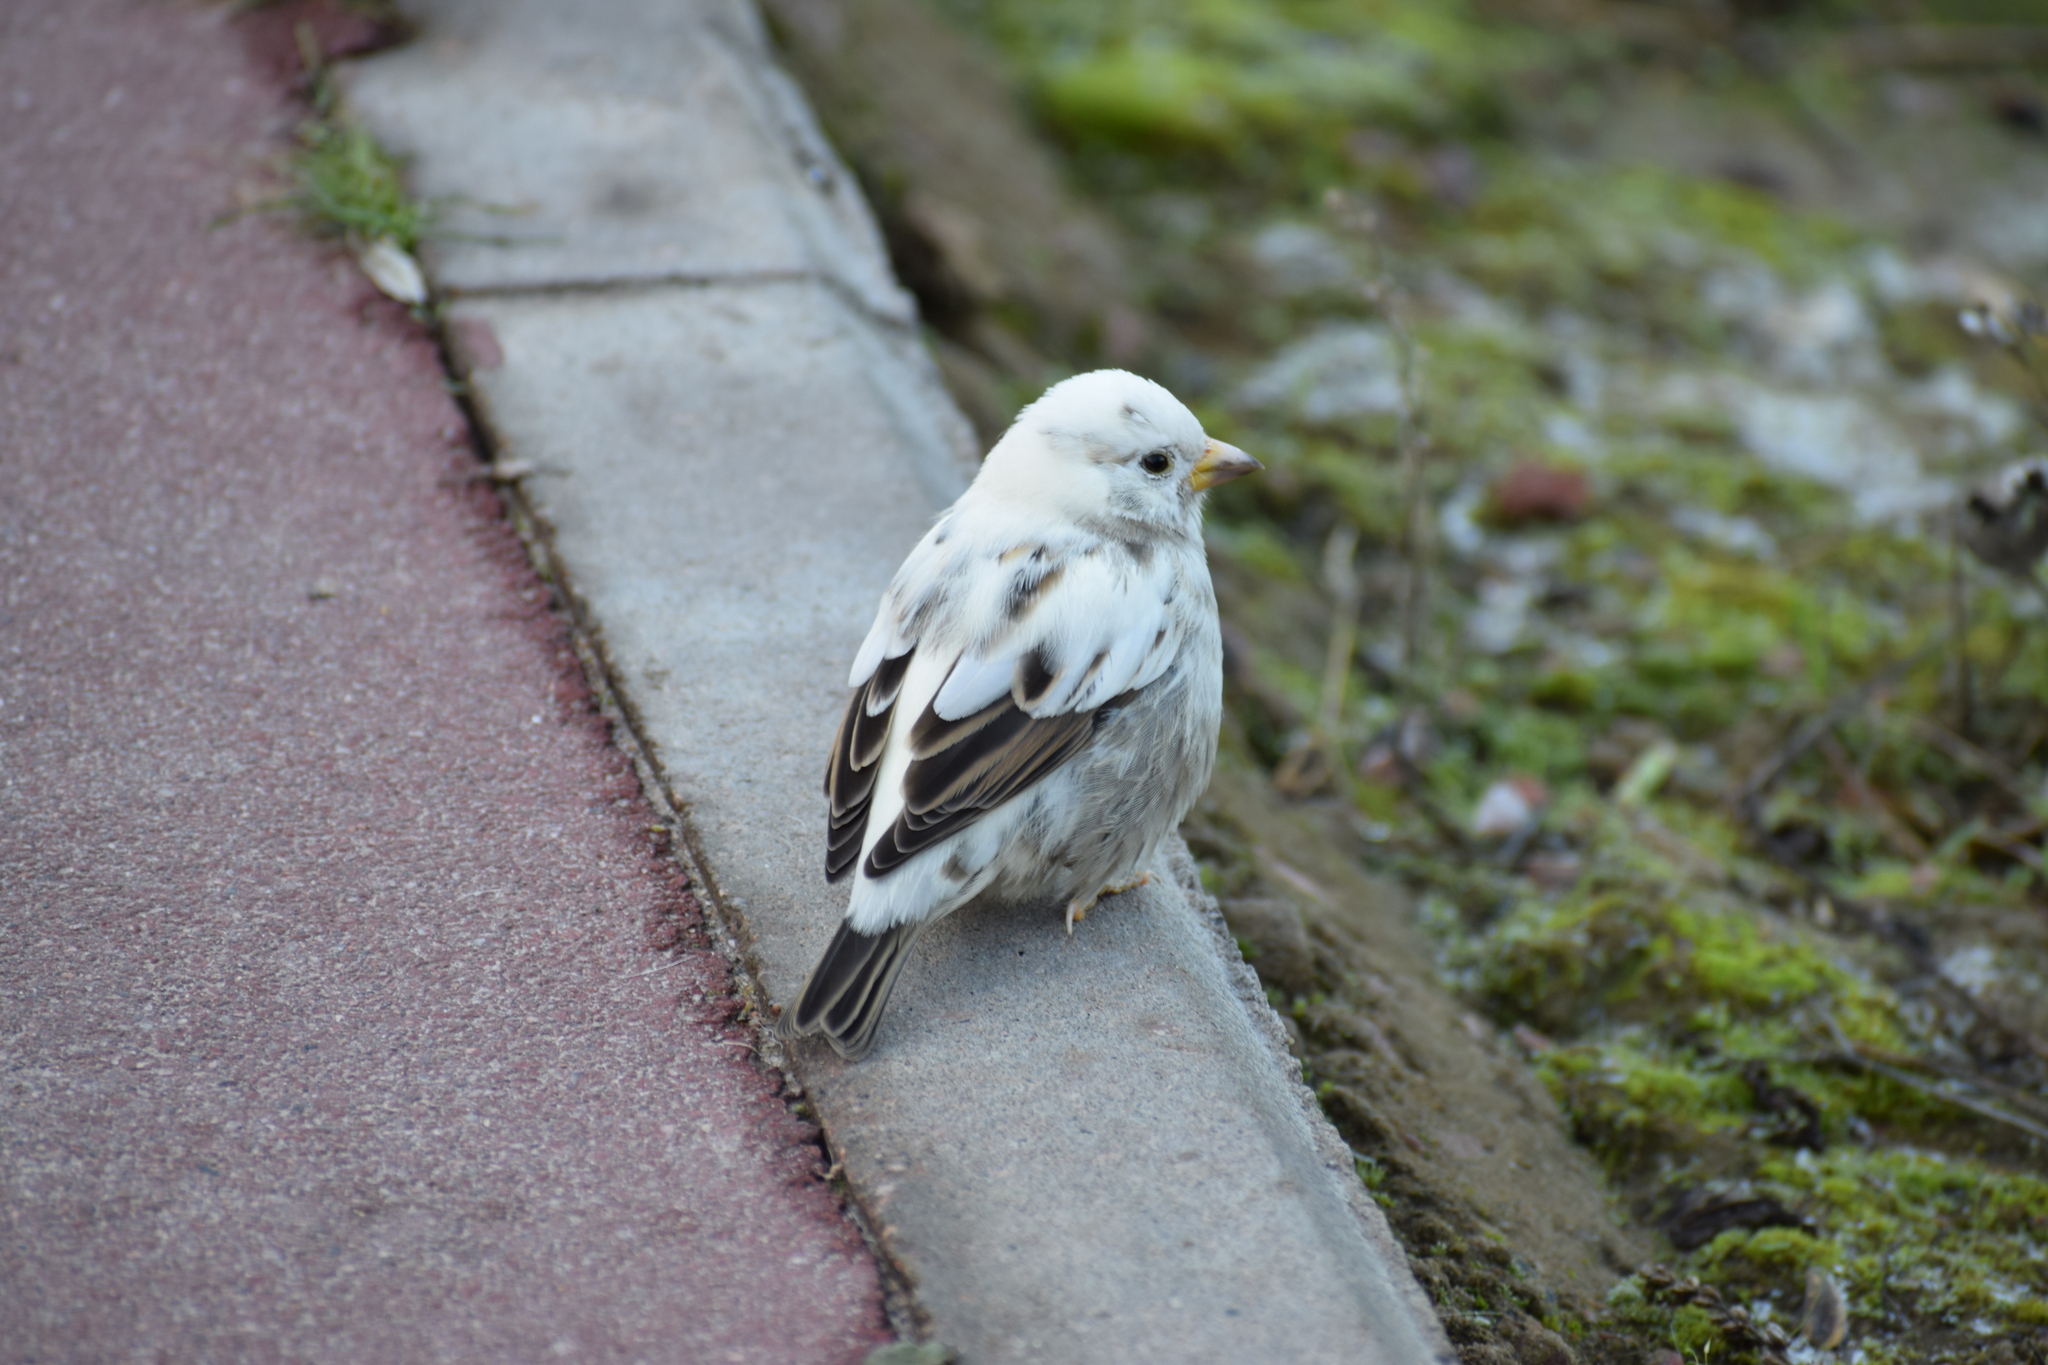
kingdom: Animalia
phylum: Chordata
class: Aves
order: Passeriformes
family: Passeridae
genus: Passer
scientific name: Passer domesticus
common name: House sparrow
